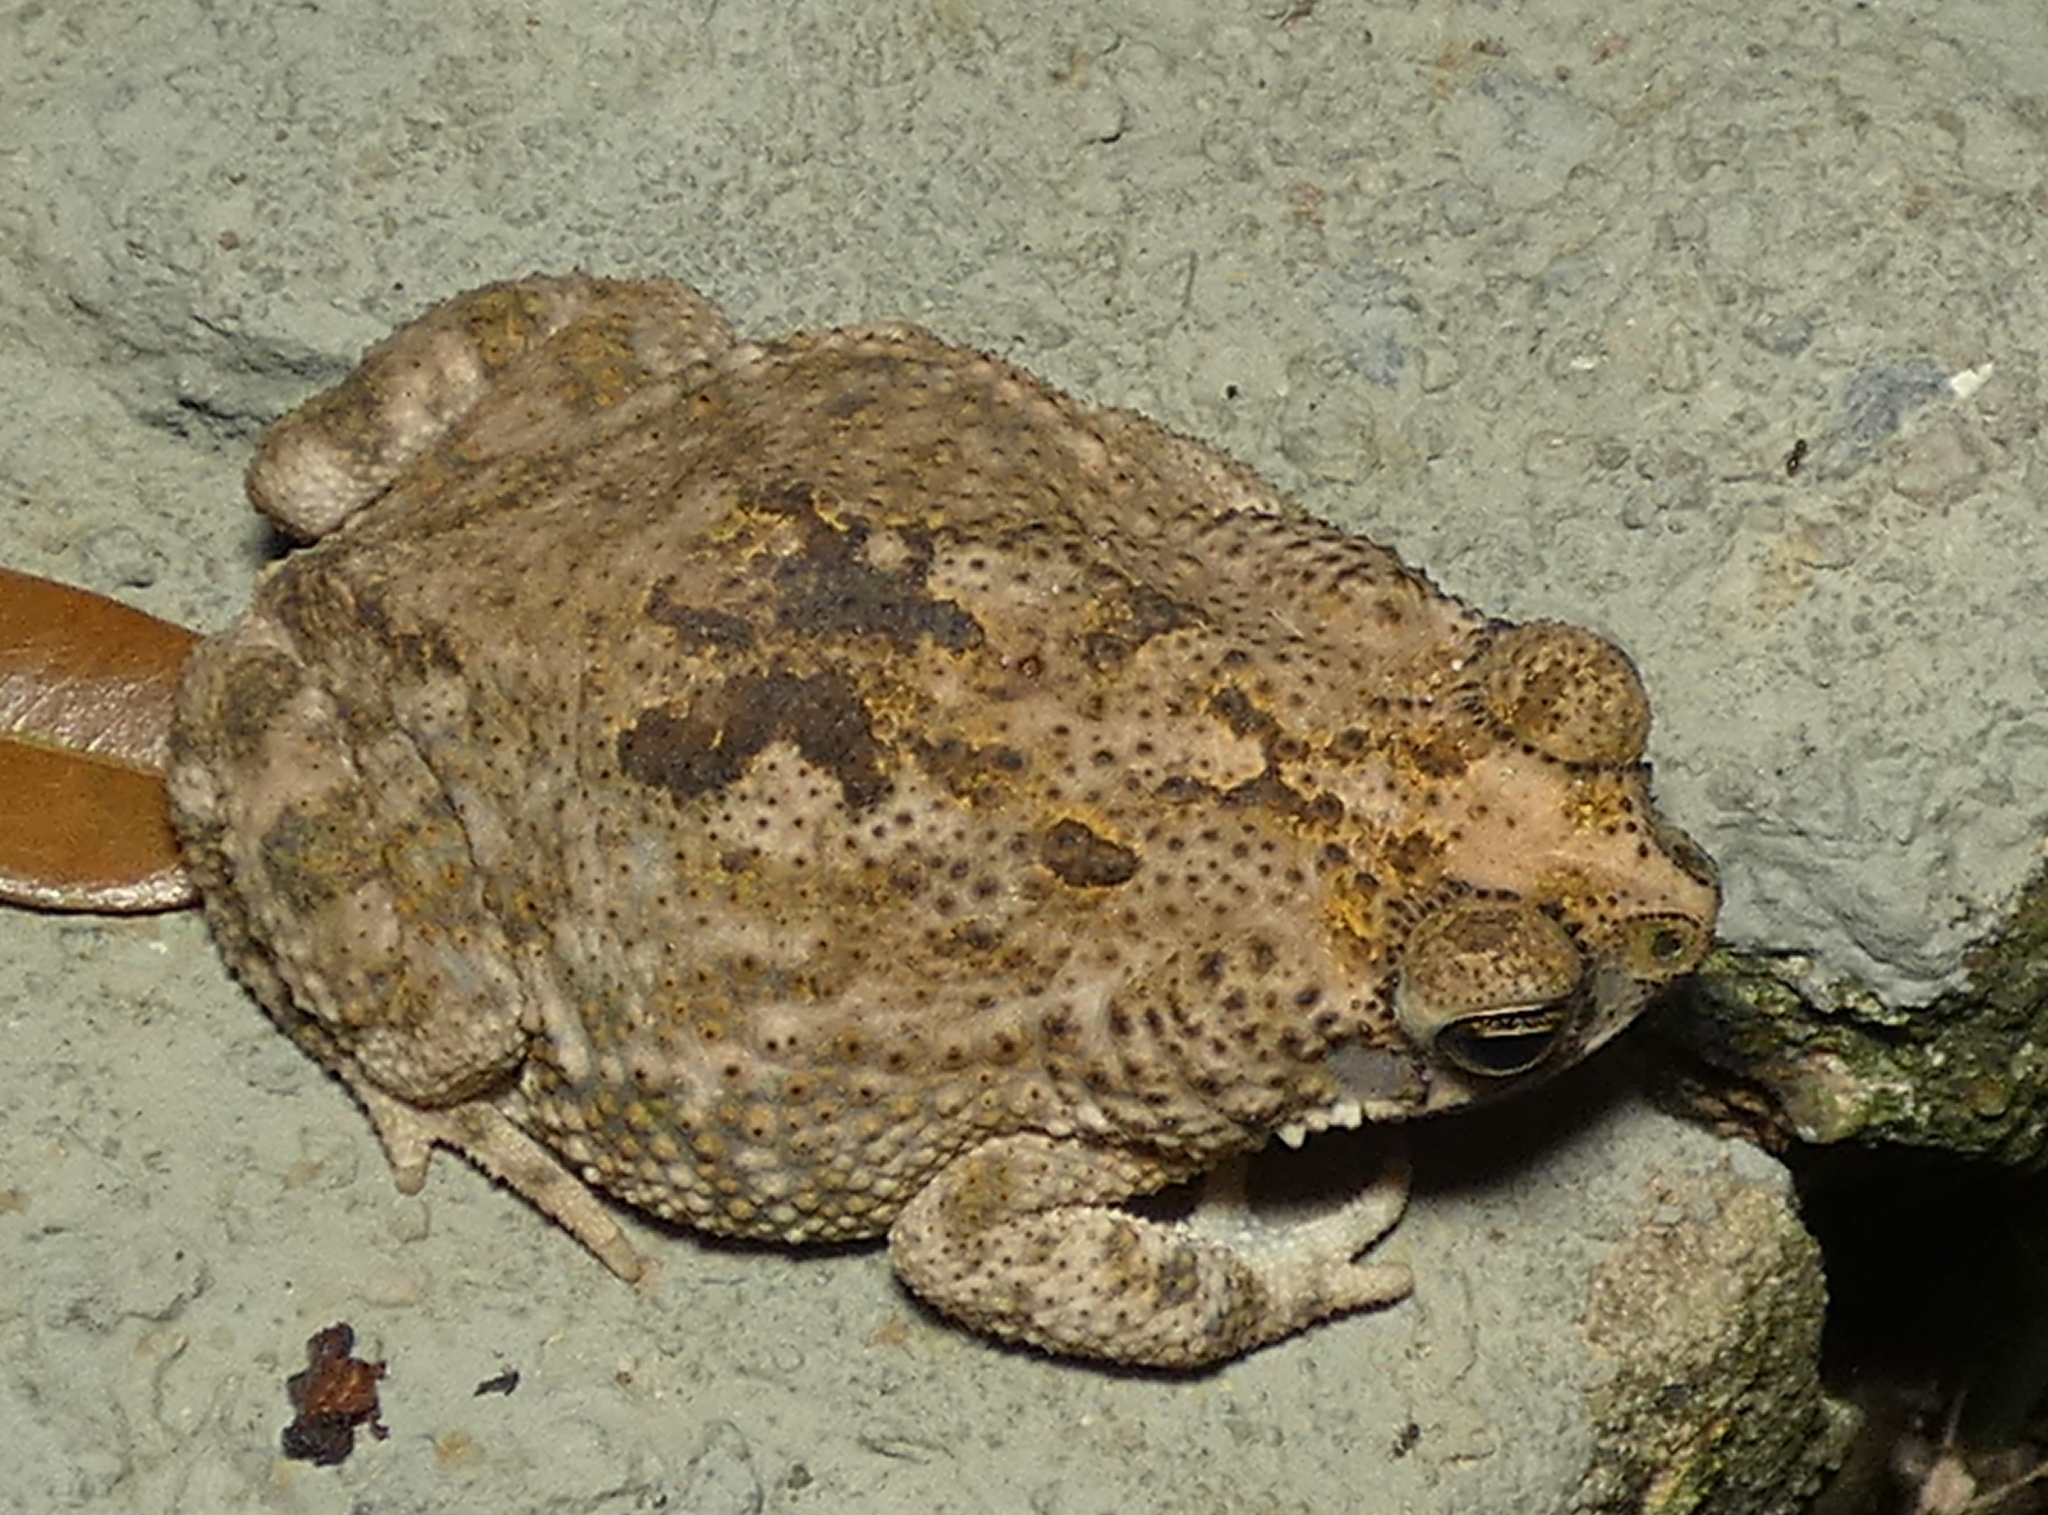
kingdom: Animalia
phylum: Chordata
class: Amphibia
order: Anura
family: Bufonidae
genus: Rhinella
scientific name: Rhinella granulosa
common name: Common lesser toad
